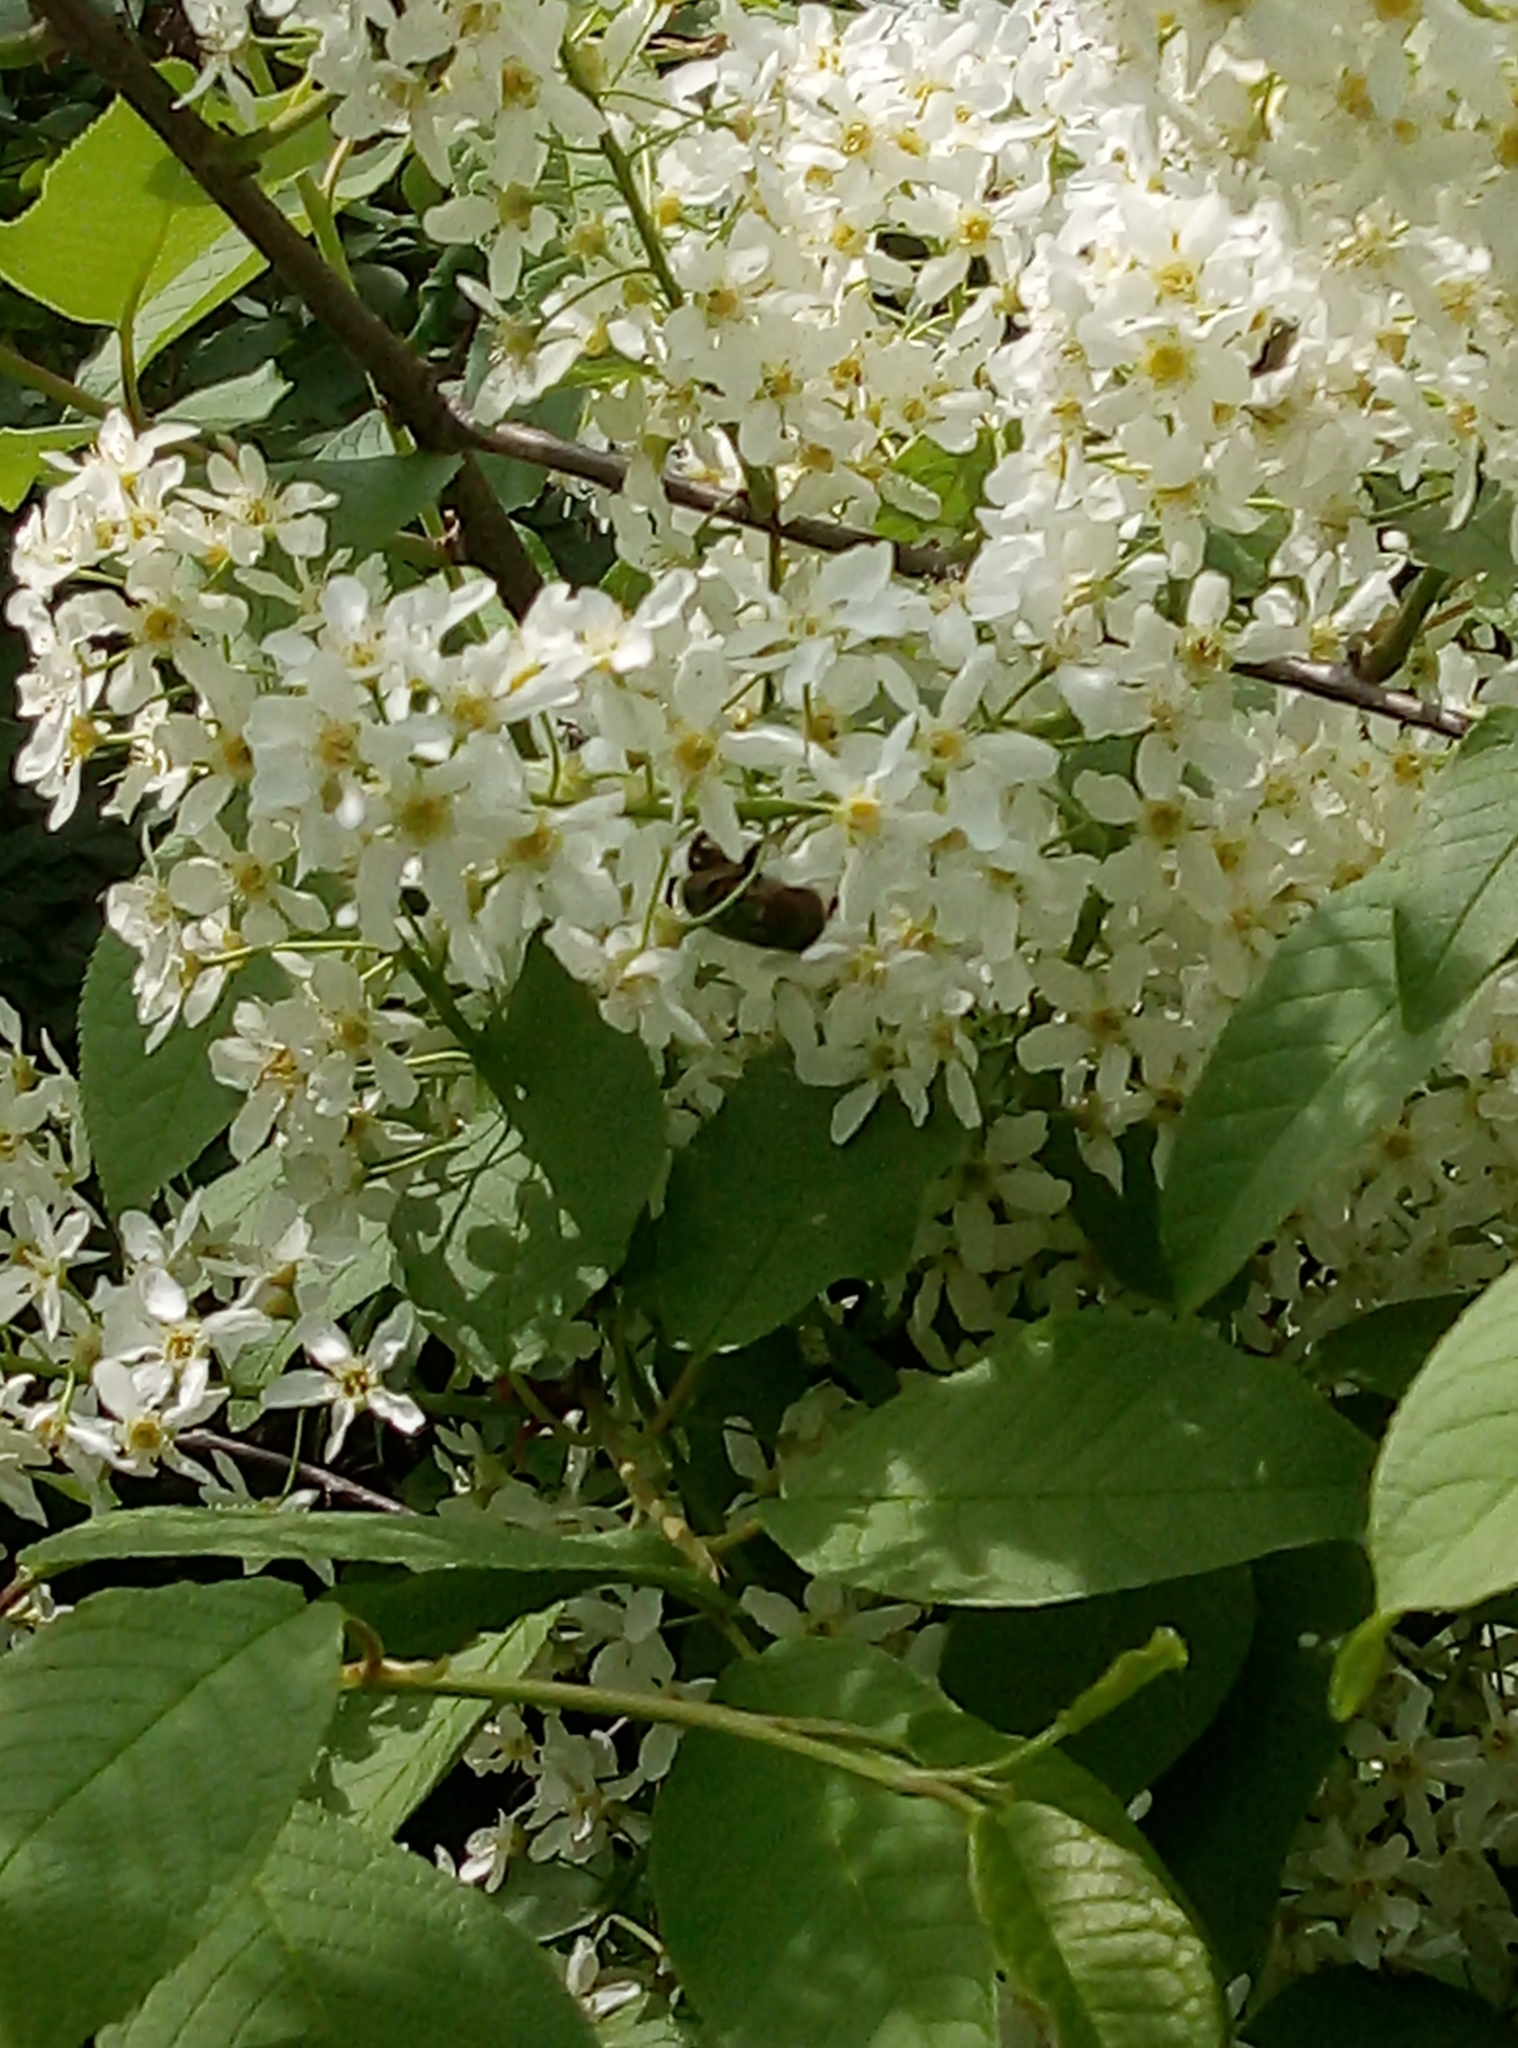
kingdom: Animalia
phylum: Arthropoda
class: Insecta
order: Coleoptera
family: Scarabaeidae
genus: Cetonia
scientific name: Cetonia aurata
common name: Rose chafer
